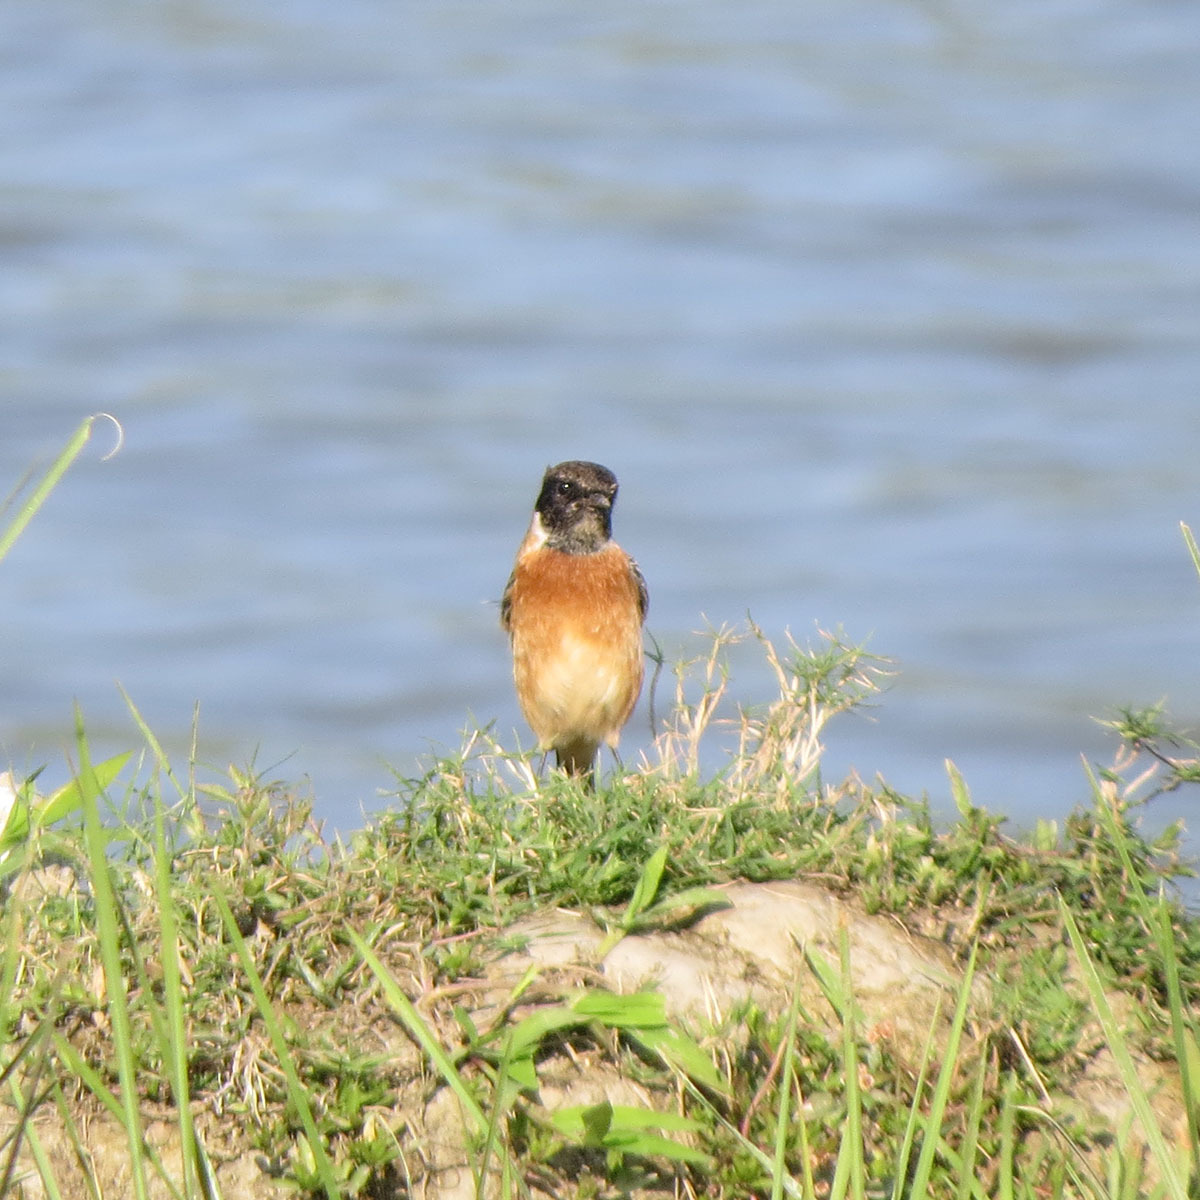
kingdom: Animalia
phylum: Chordata
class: Aves
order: Passeriformes
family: Muscicapidae
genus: Saxicola
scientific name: Saxicola maurus
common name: Siberian stonechat
